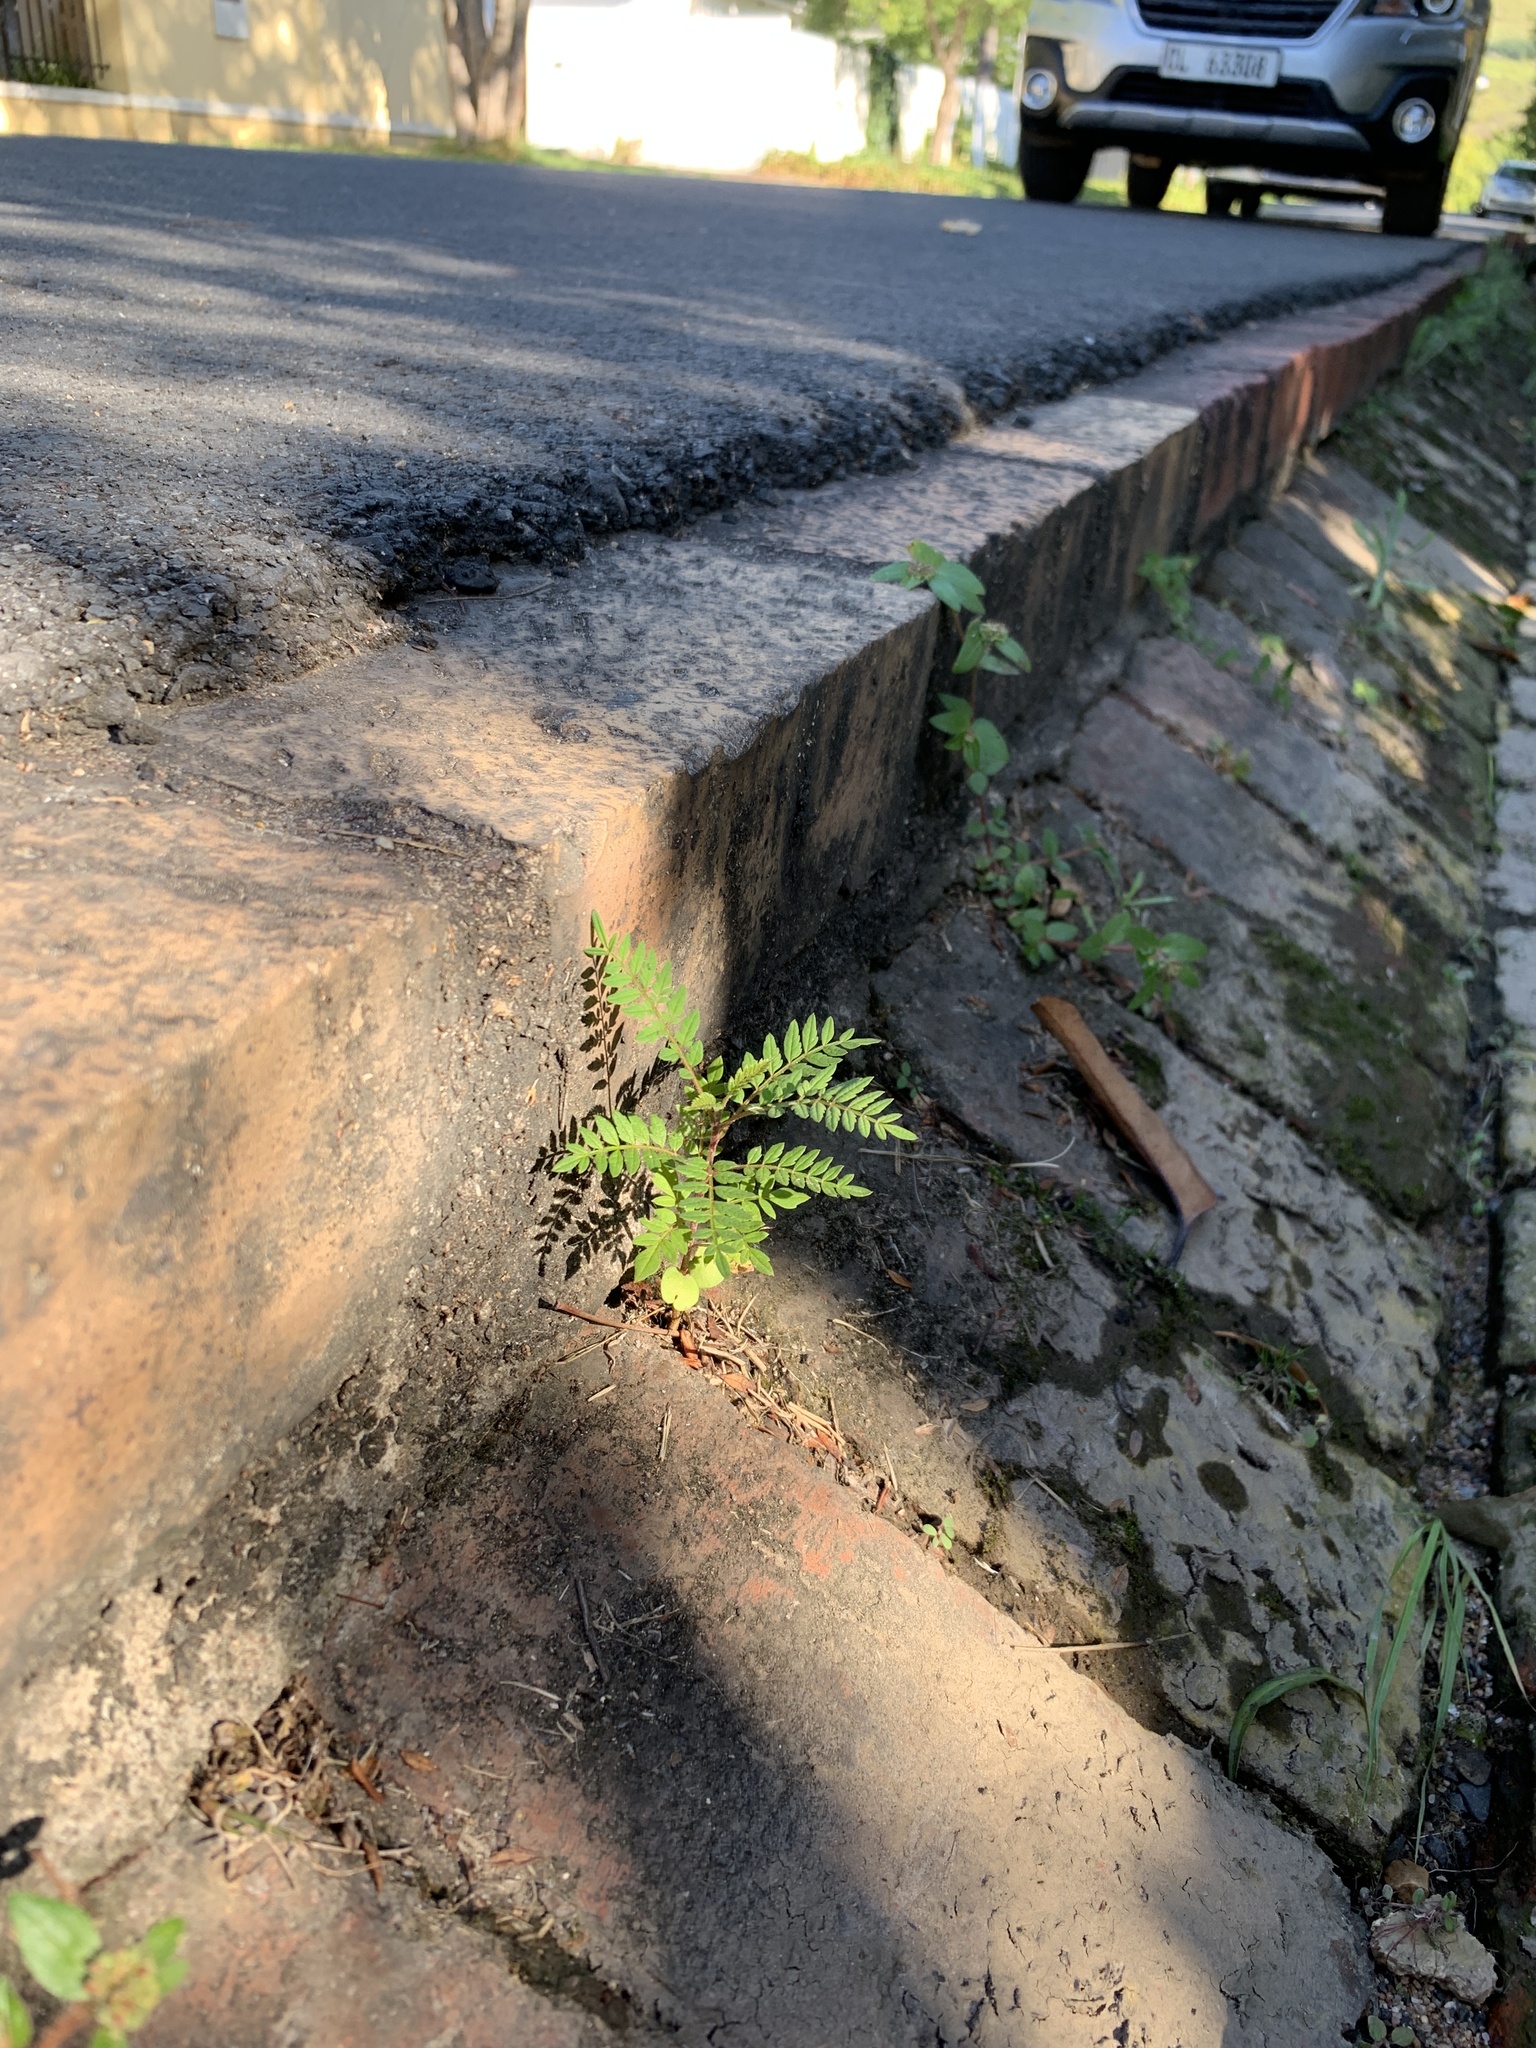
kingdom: Plantae
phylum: Tracheophyta
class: Magnoliopsida
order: Lamiales
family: Bignoniaceae
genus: Jacaranda
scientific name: Jacaranda mimosifolia
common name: Black poui
